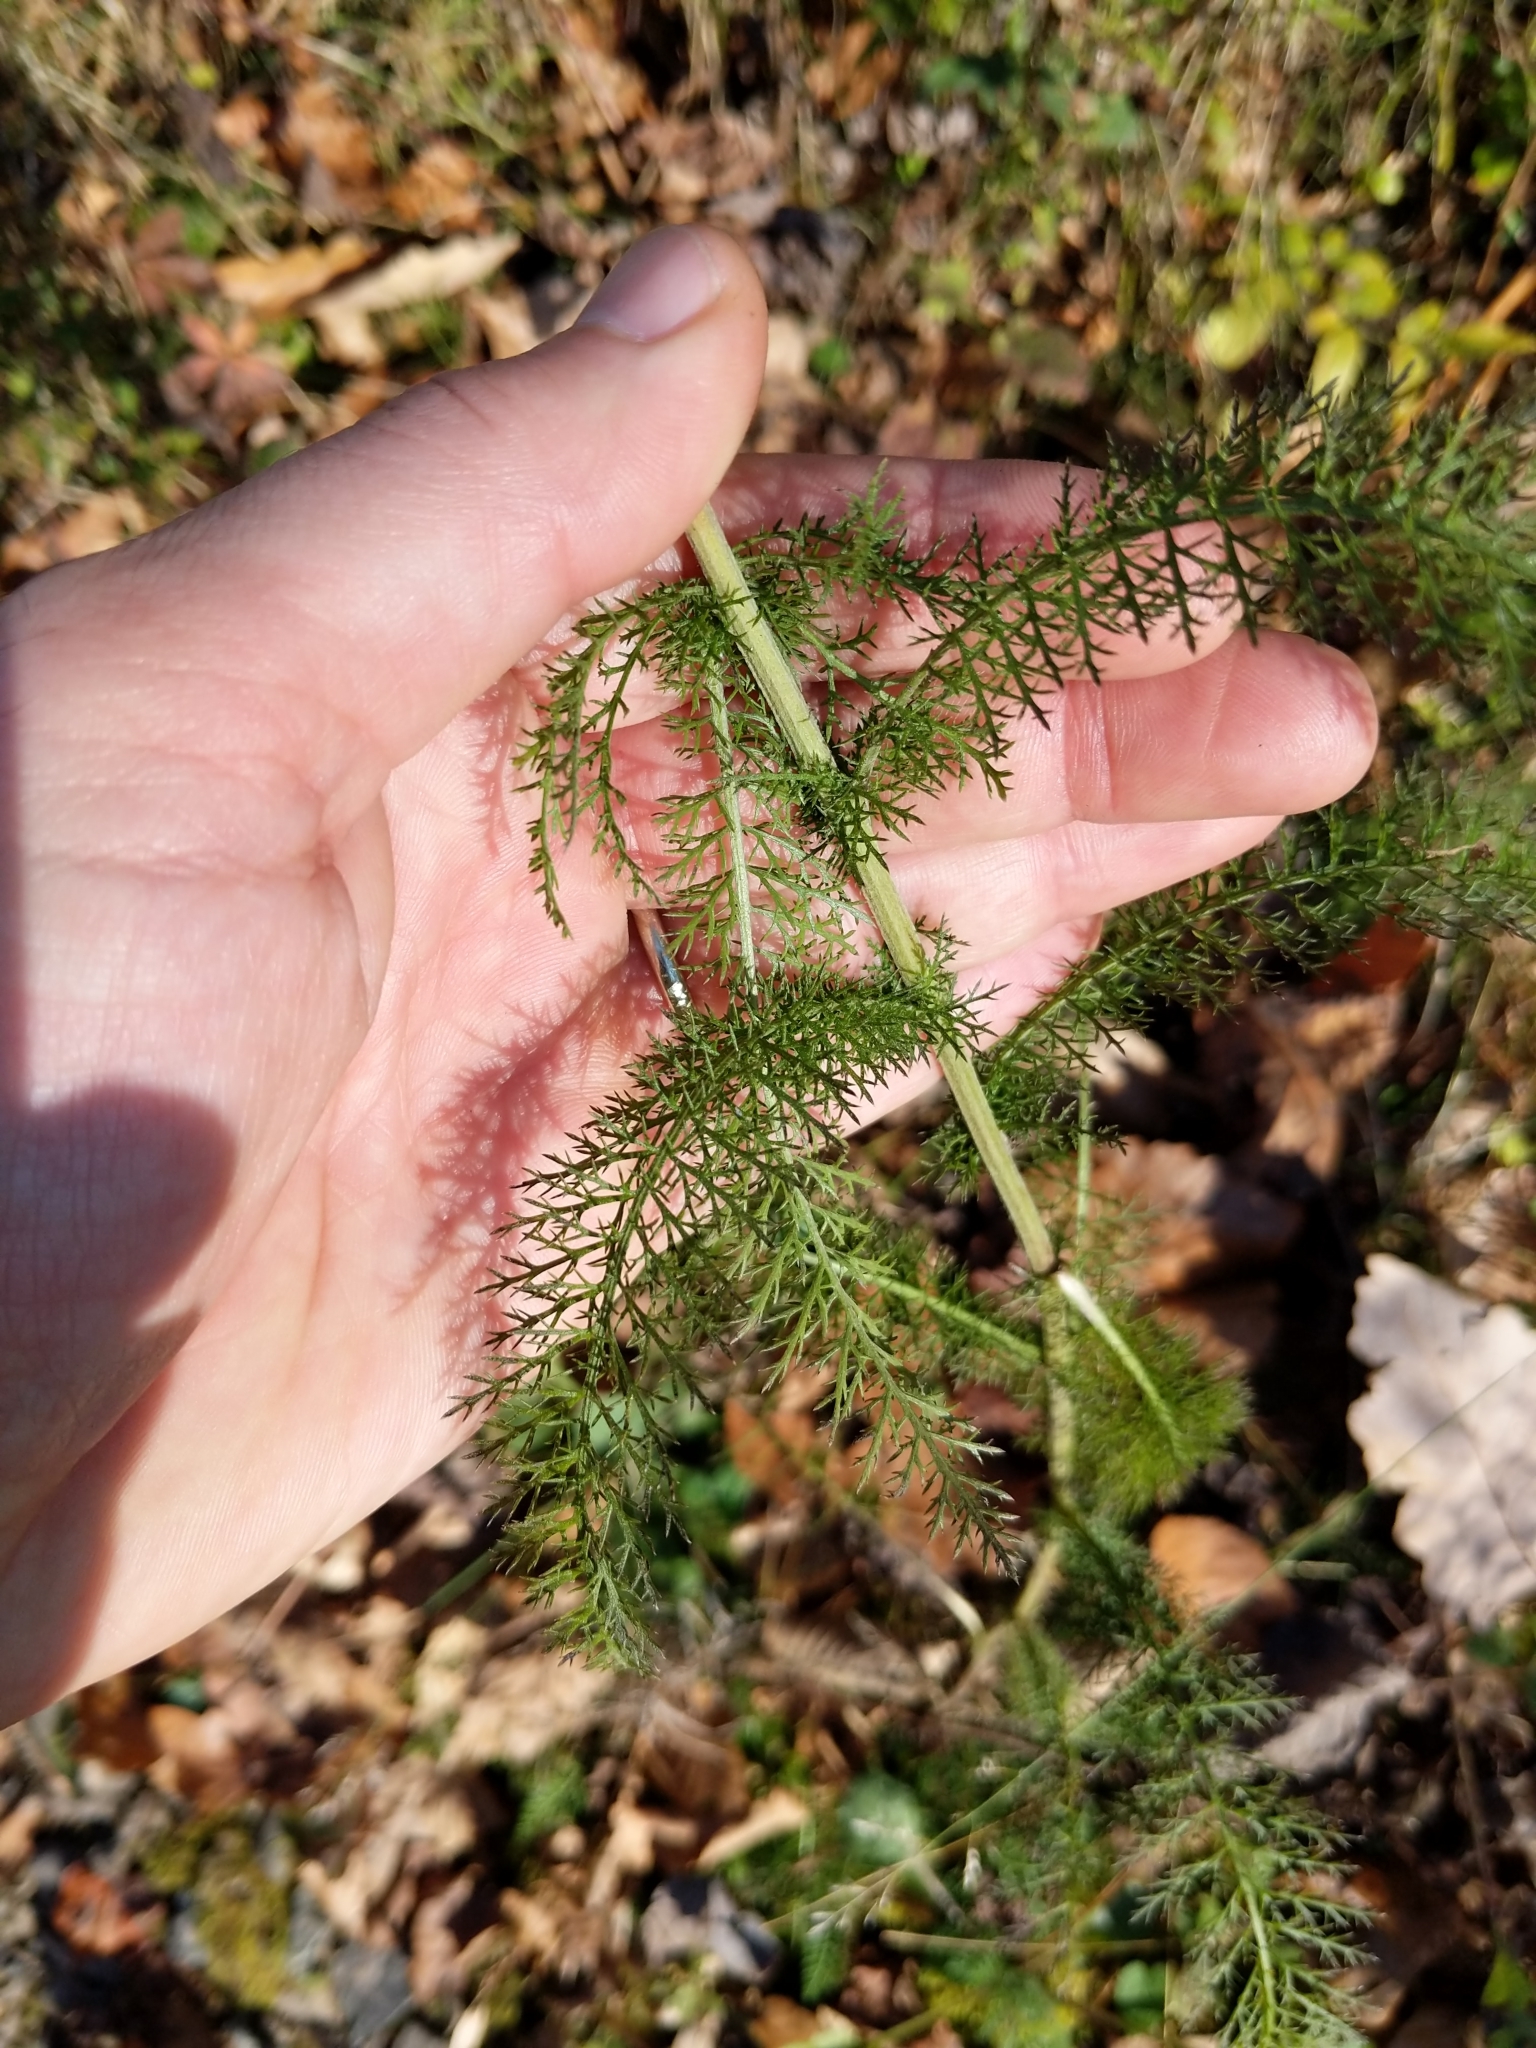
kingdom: Plantae
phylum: Tracheophyta
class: Magnoliopsida
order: Asterales
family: Asteraceae
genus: Achillea
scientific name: Achillea millefolium
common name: Yarrow
